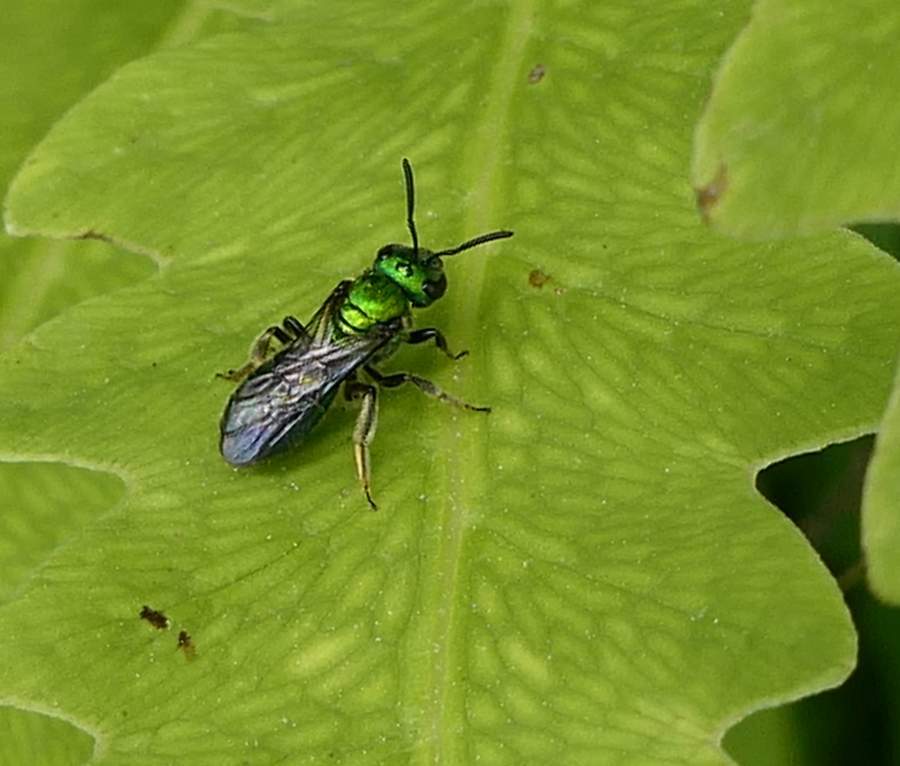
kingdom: Animalia
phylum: Arthropoda
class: Insecta
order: Hymenoptera
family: Halictidae
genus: Augochlora
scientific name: Augochlora pura
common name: Pure green sweat bee
